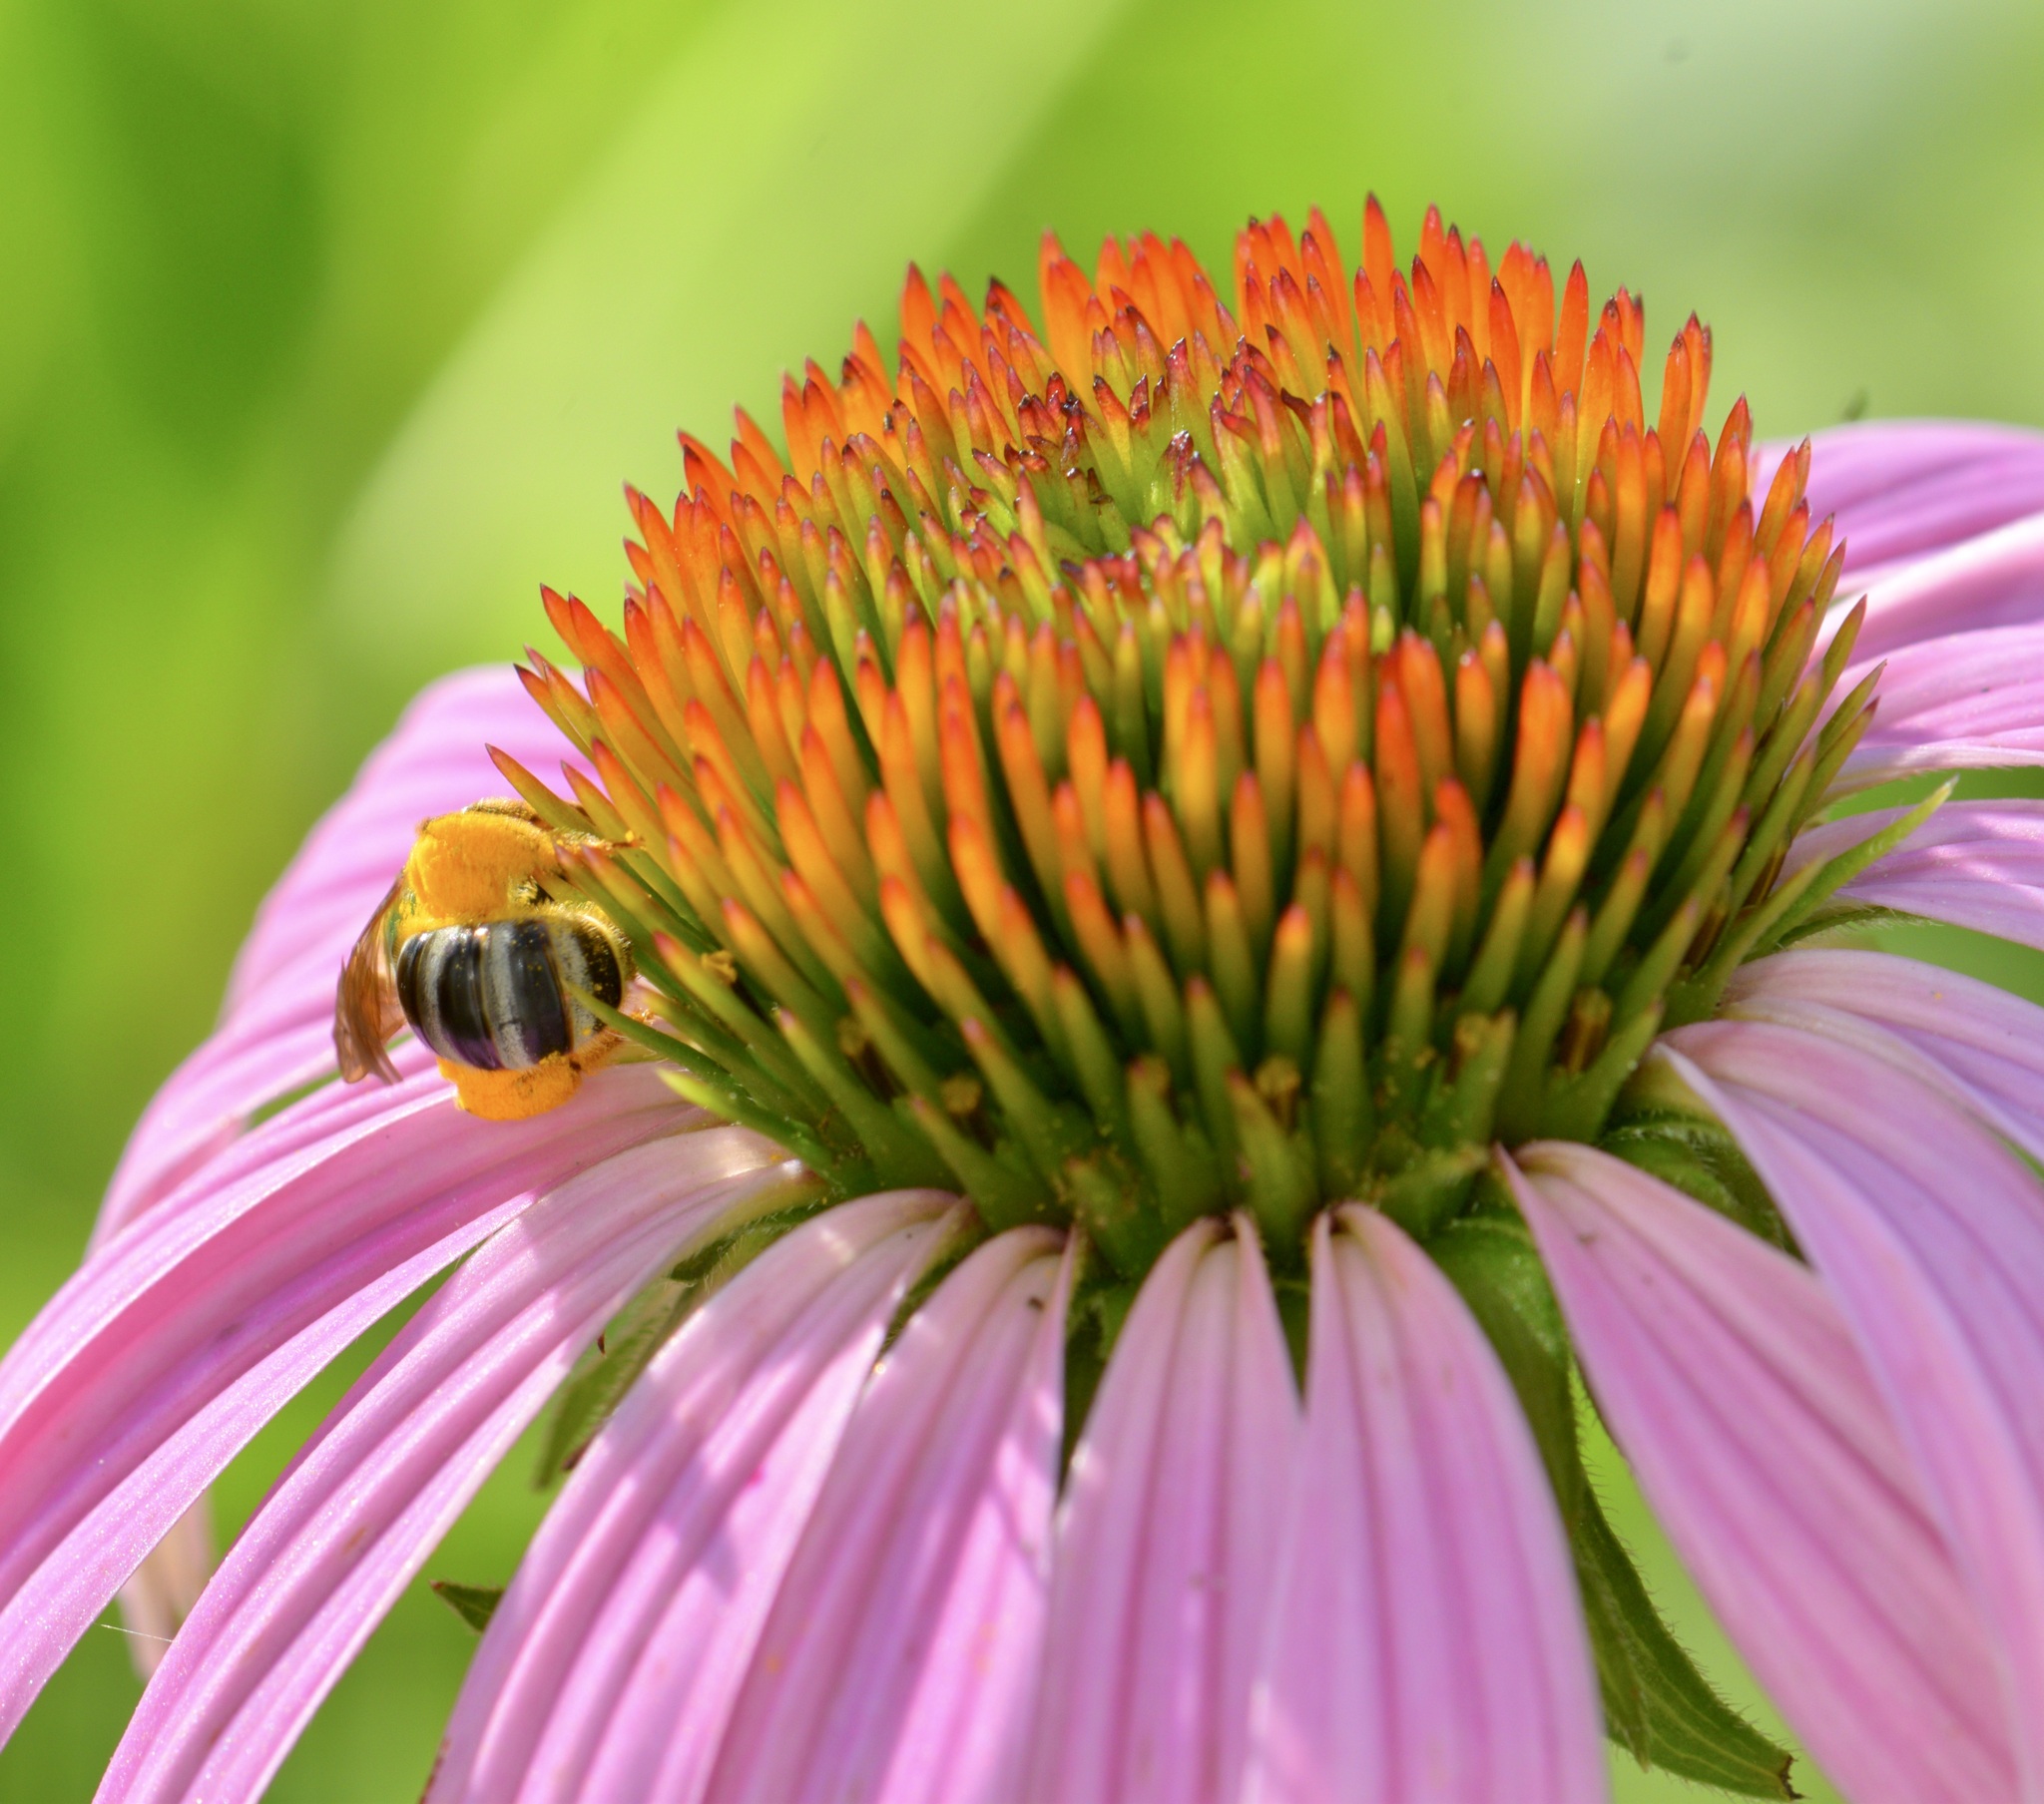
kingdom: Animalia
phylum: Arthropoda
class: Insecta
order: Hymenoptera
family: Halictidae
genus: Agapostemon
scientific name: Agapostemon virescens
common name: Bicolored striped sweat bee
